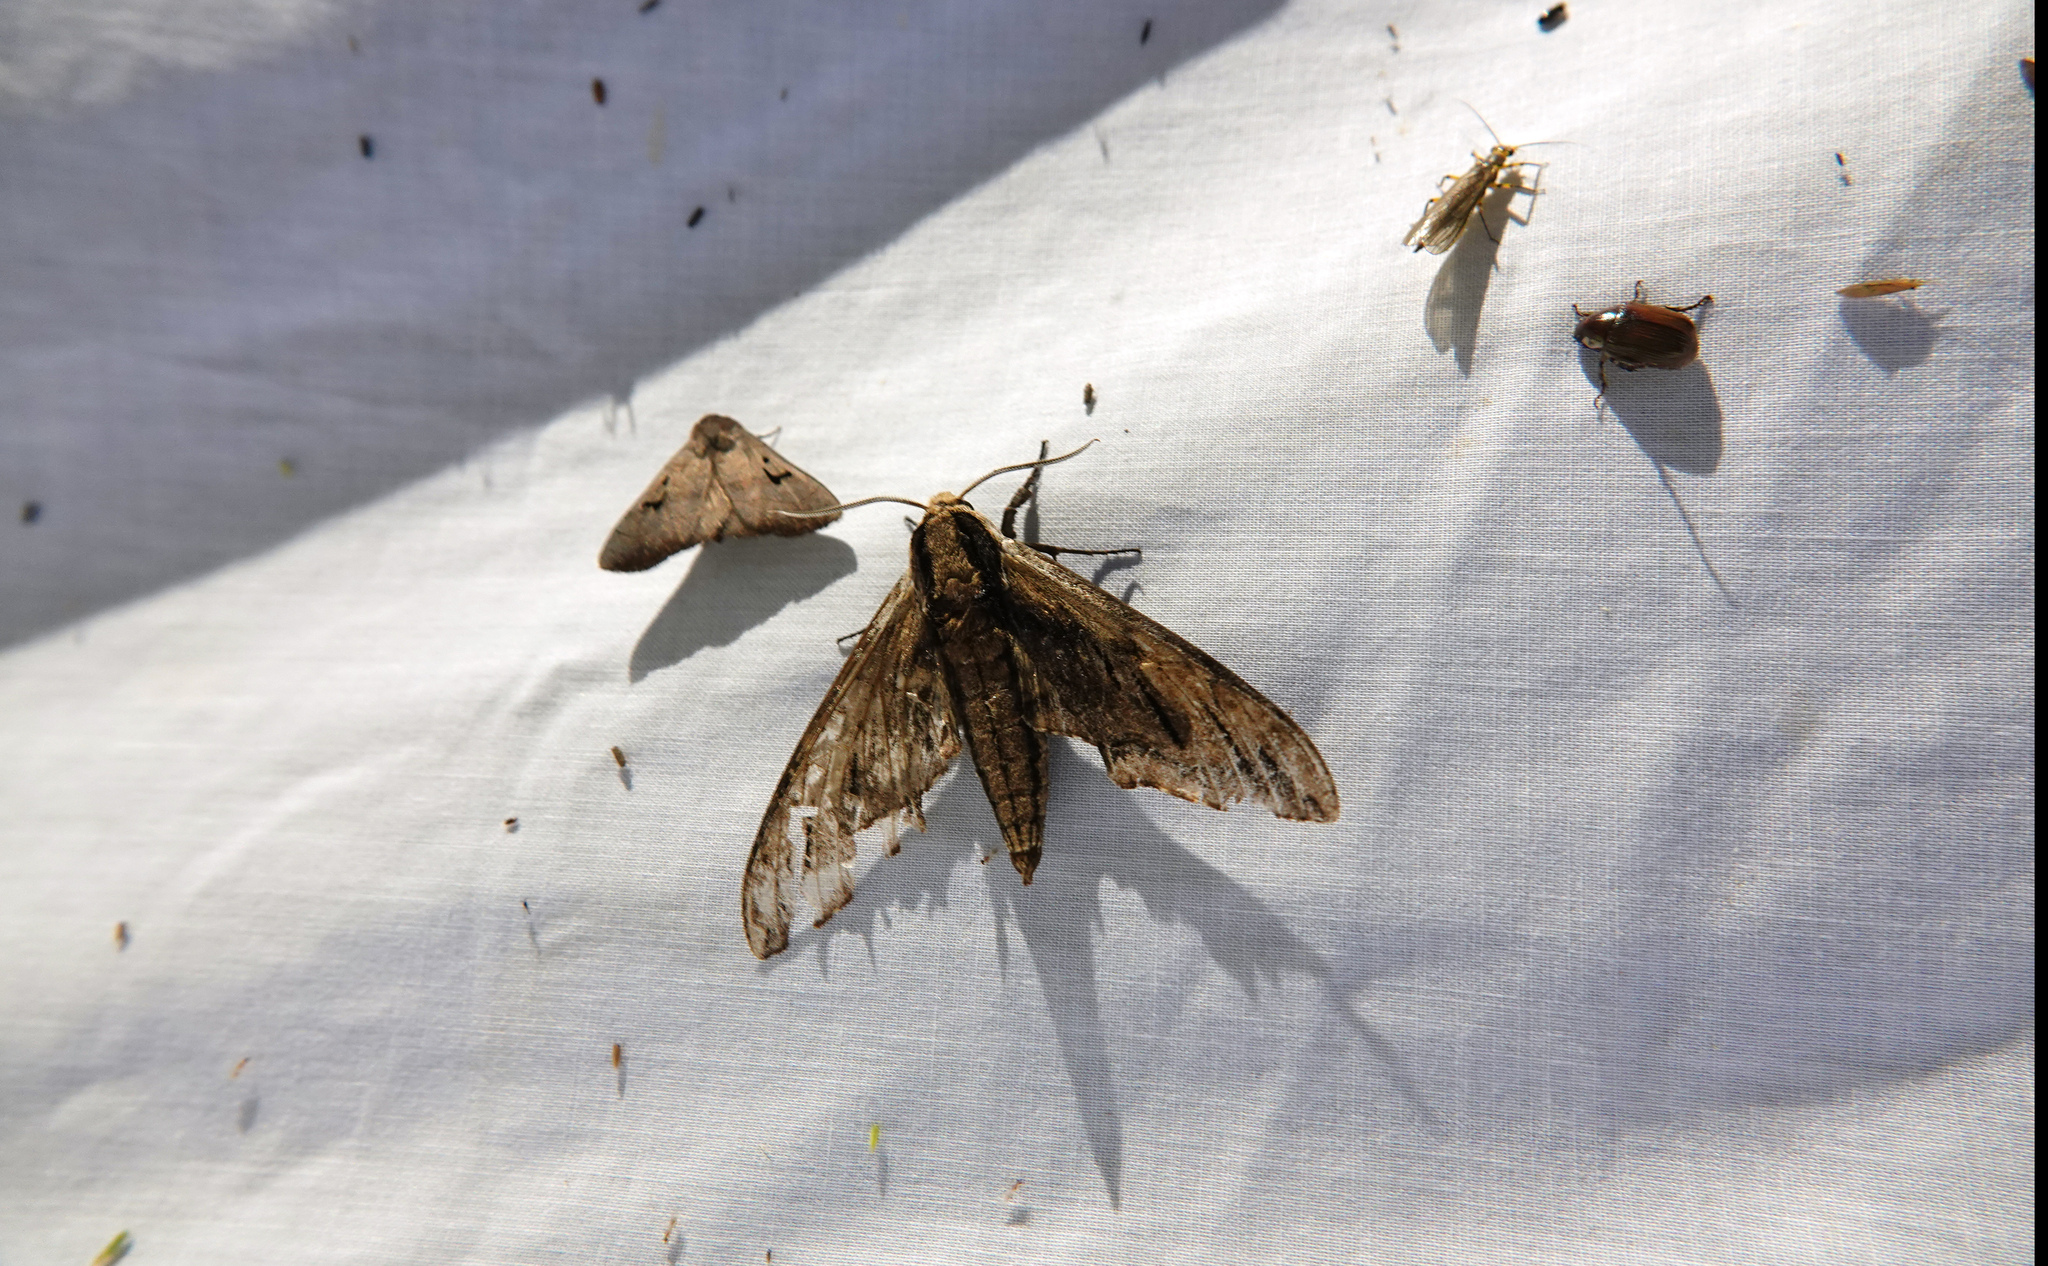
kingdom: Animalia
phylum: Arthropoda
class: Insecta
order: Lepidoptera
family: Sphingidae
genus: Ceratomia
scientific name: Ceratomia amyntor
